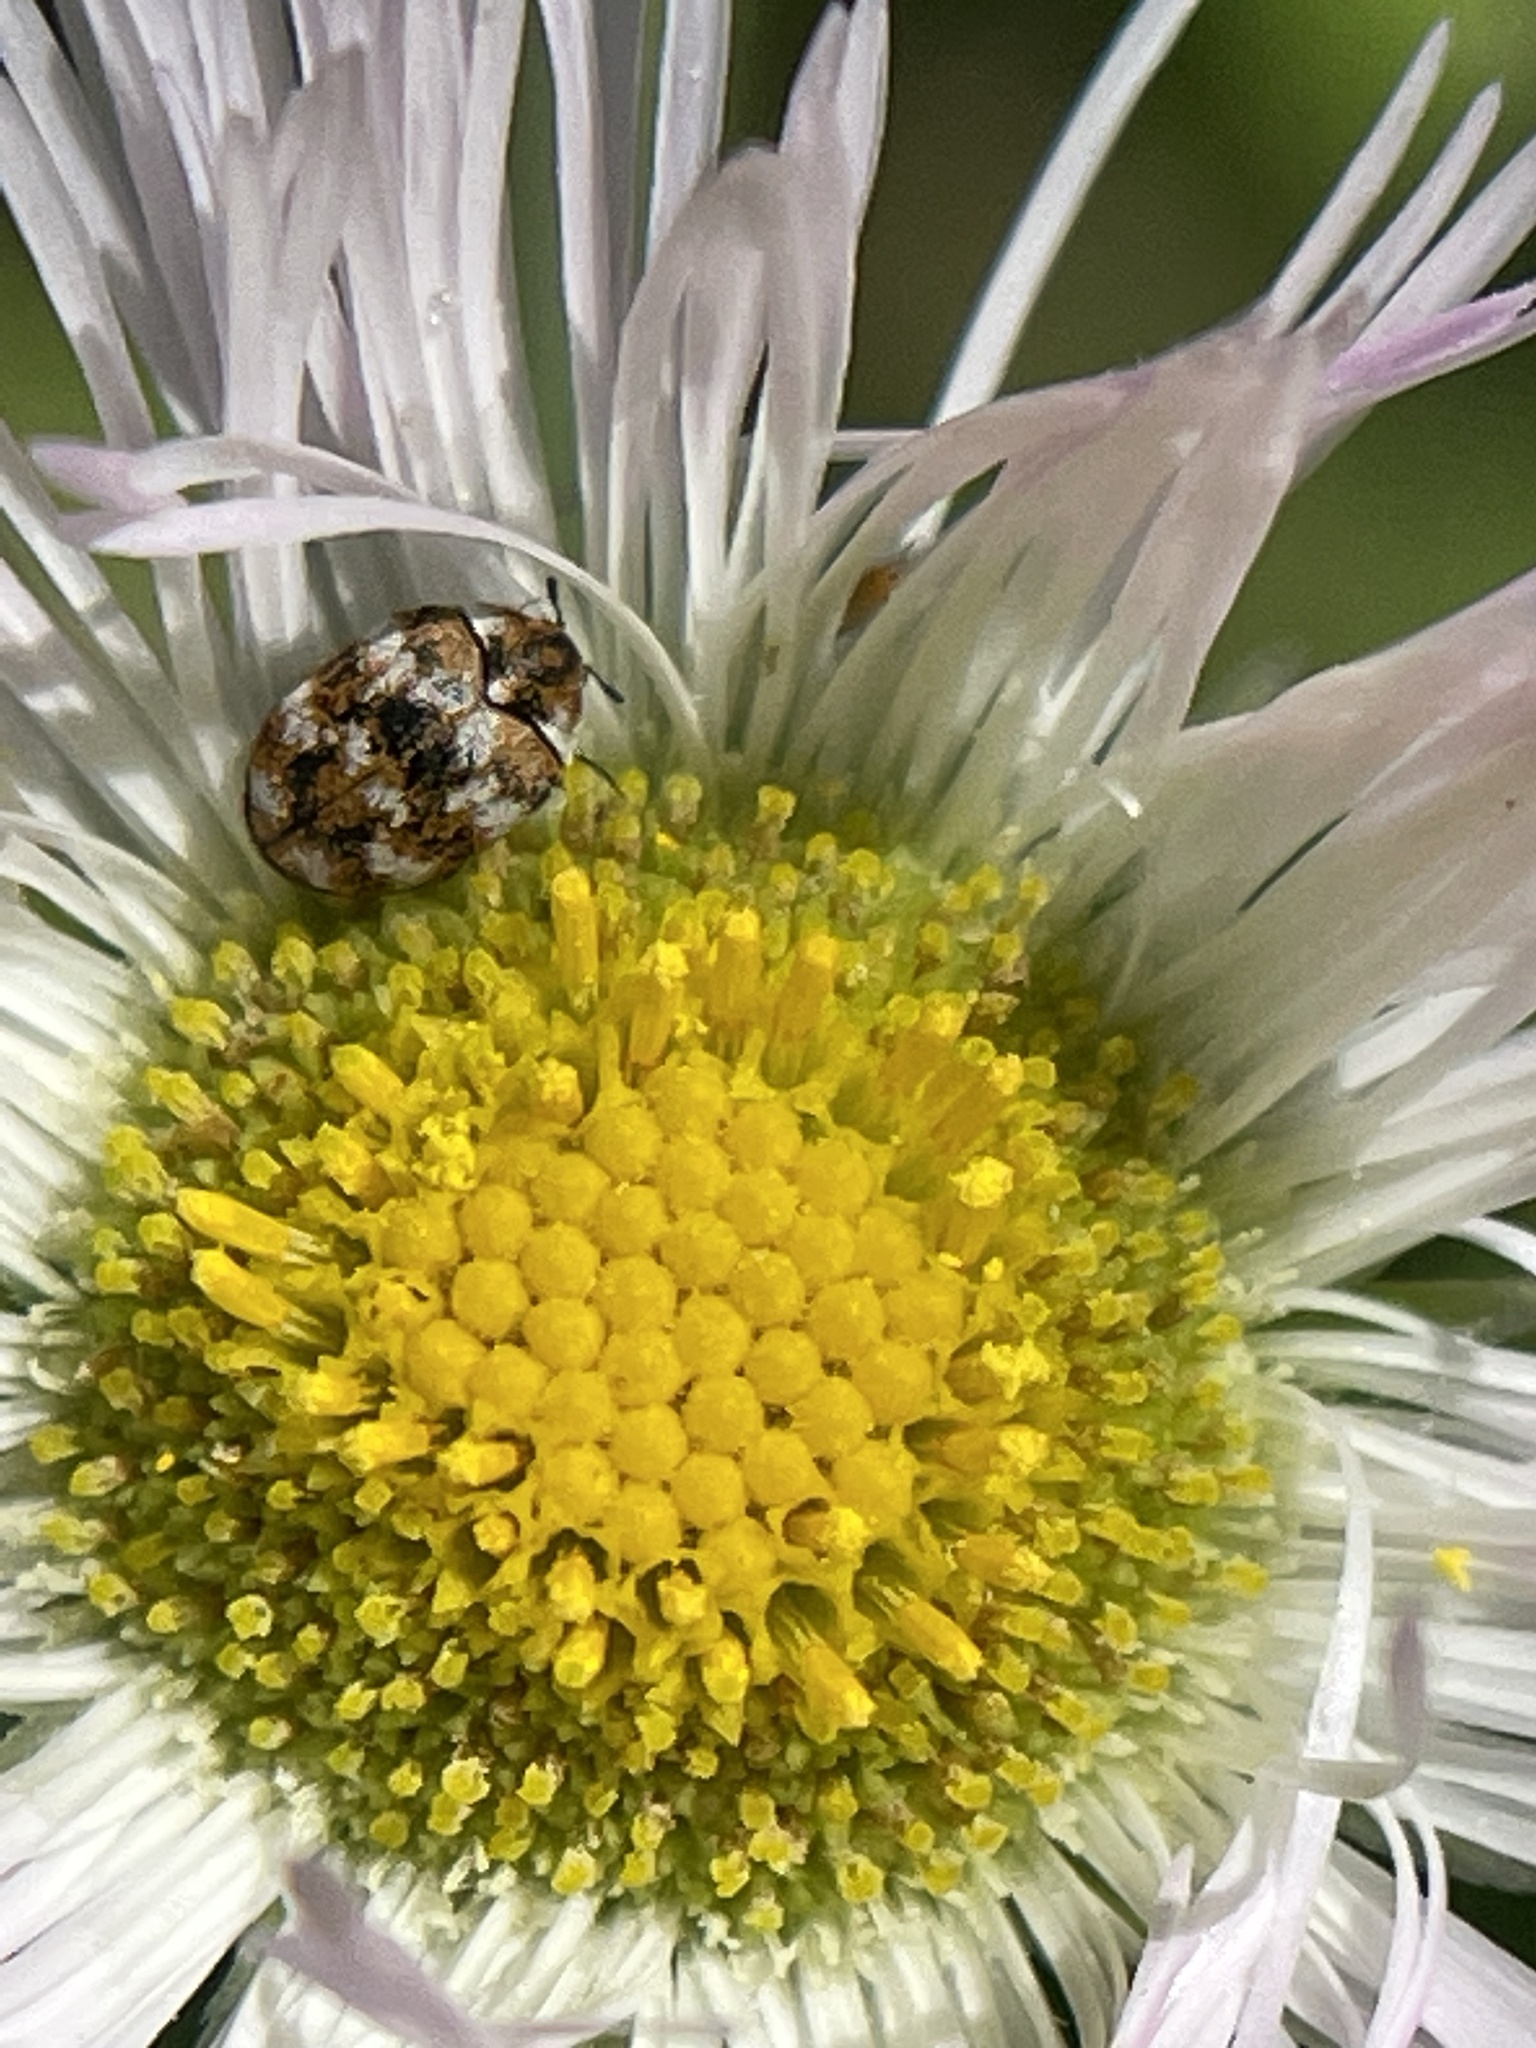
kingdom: Animalia
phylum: Arthropoda
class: Insecta
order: Coleoptera
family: Dermestidae
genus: Anthrenus
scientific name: Anthrenus verbasci
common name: Varied carpet beetle
